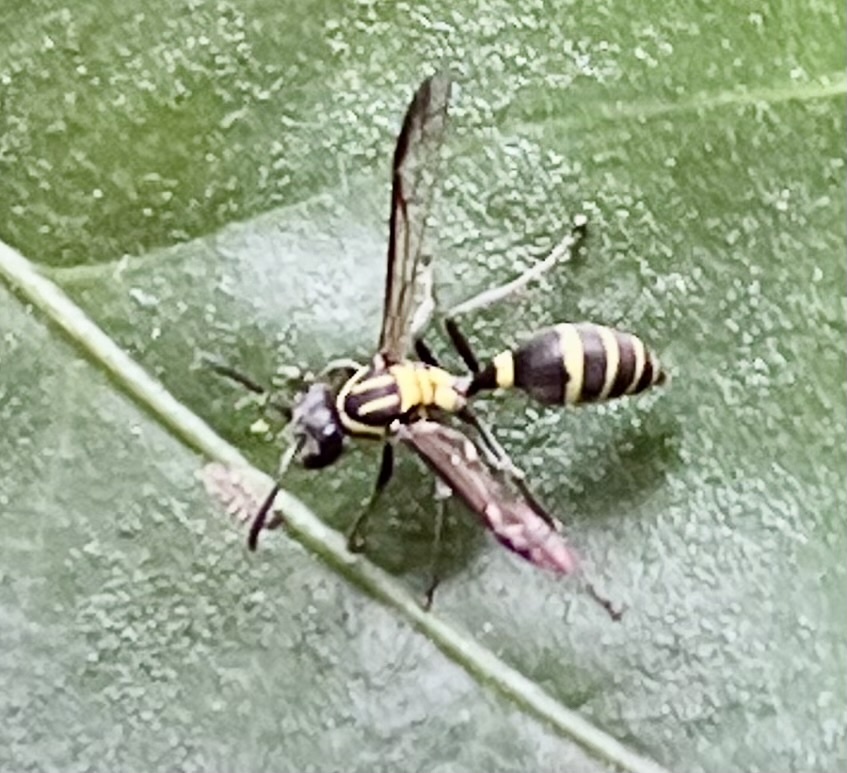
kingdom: Animalia
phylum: Arthropoda
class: Insecta
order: Hymenoptera
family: Eumenidae
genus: Polybia
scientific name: Polybia occidentalis
